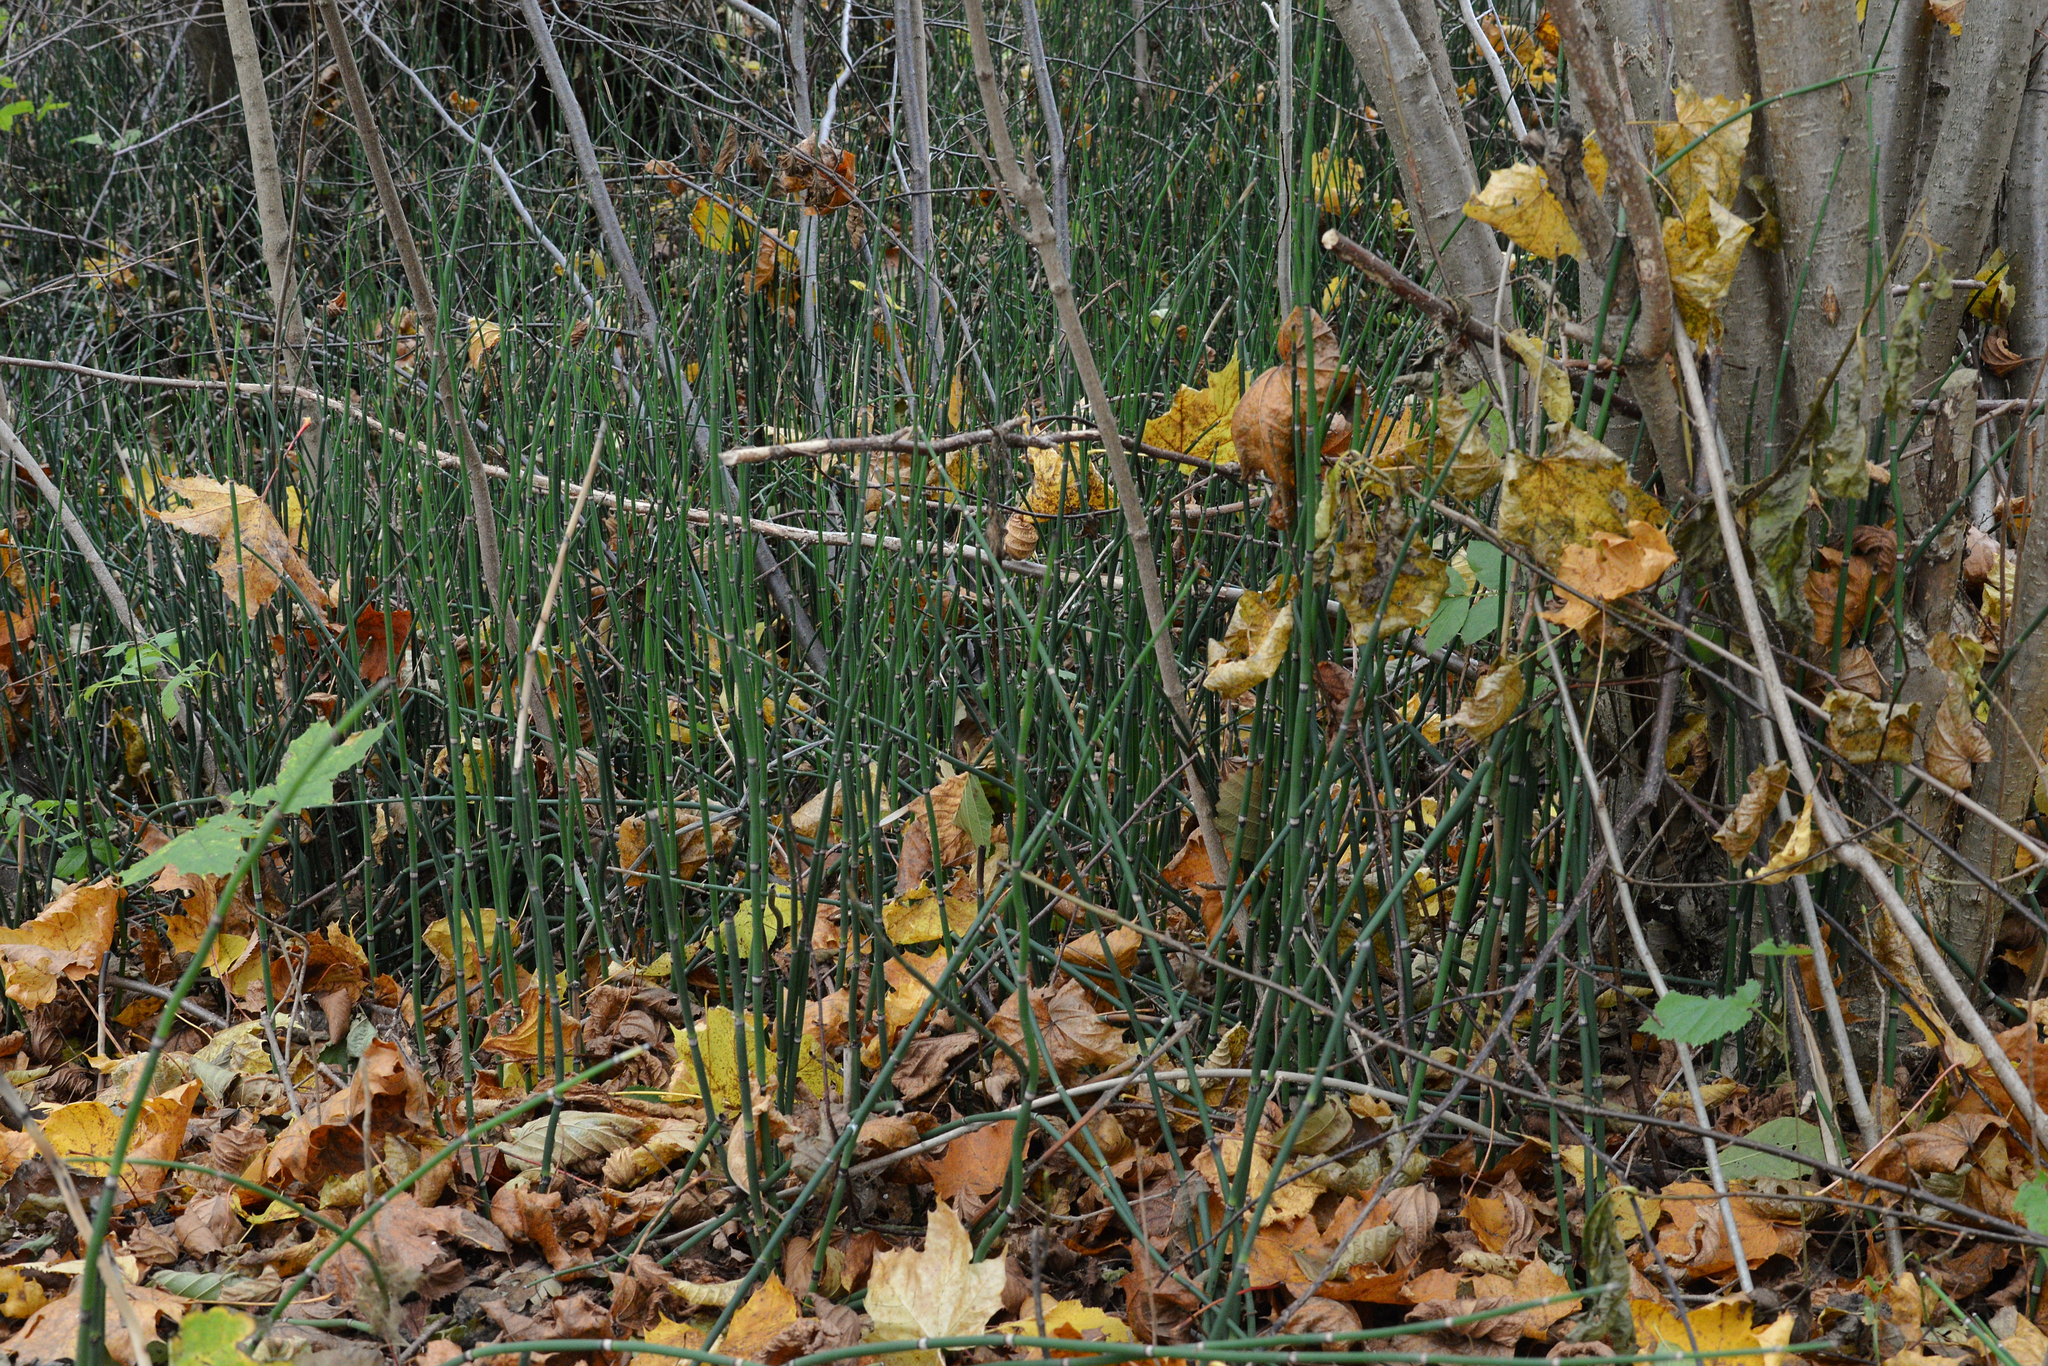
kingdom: Plantae
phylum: Tracheophyta
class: Polypodiopsida
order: Equisetales
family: Equisetaceae
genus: Equisetum
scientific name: Equisetum hyemale
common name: Rough horsetail
